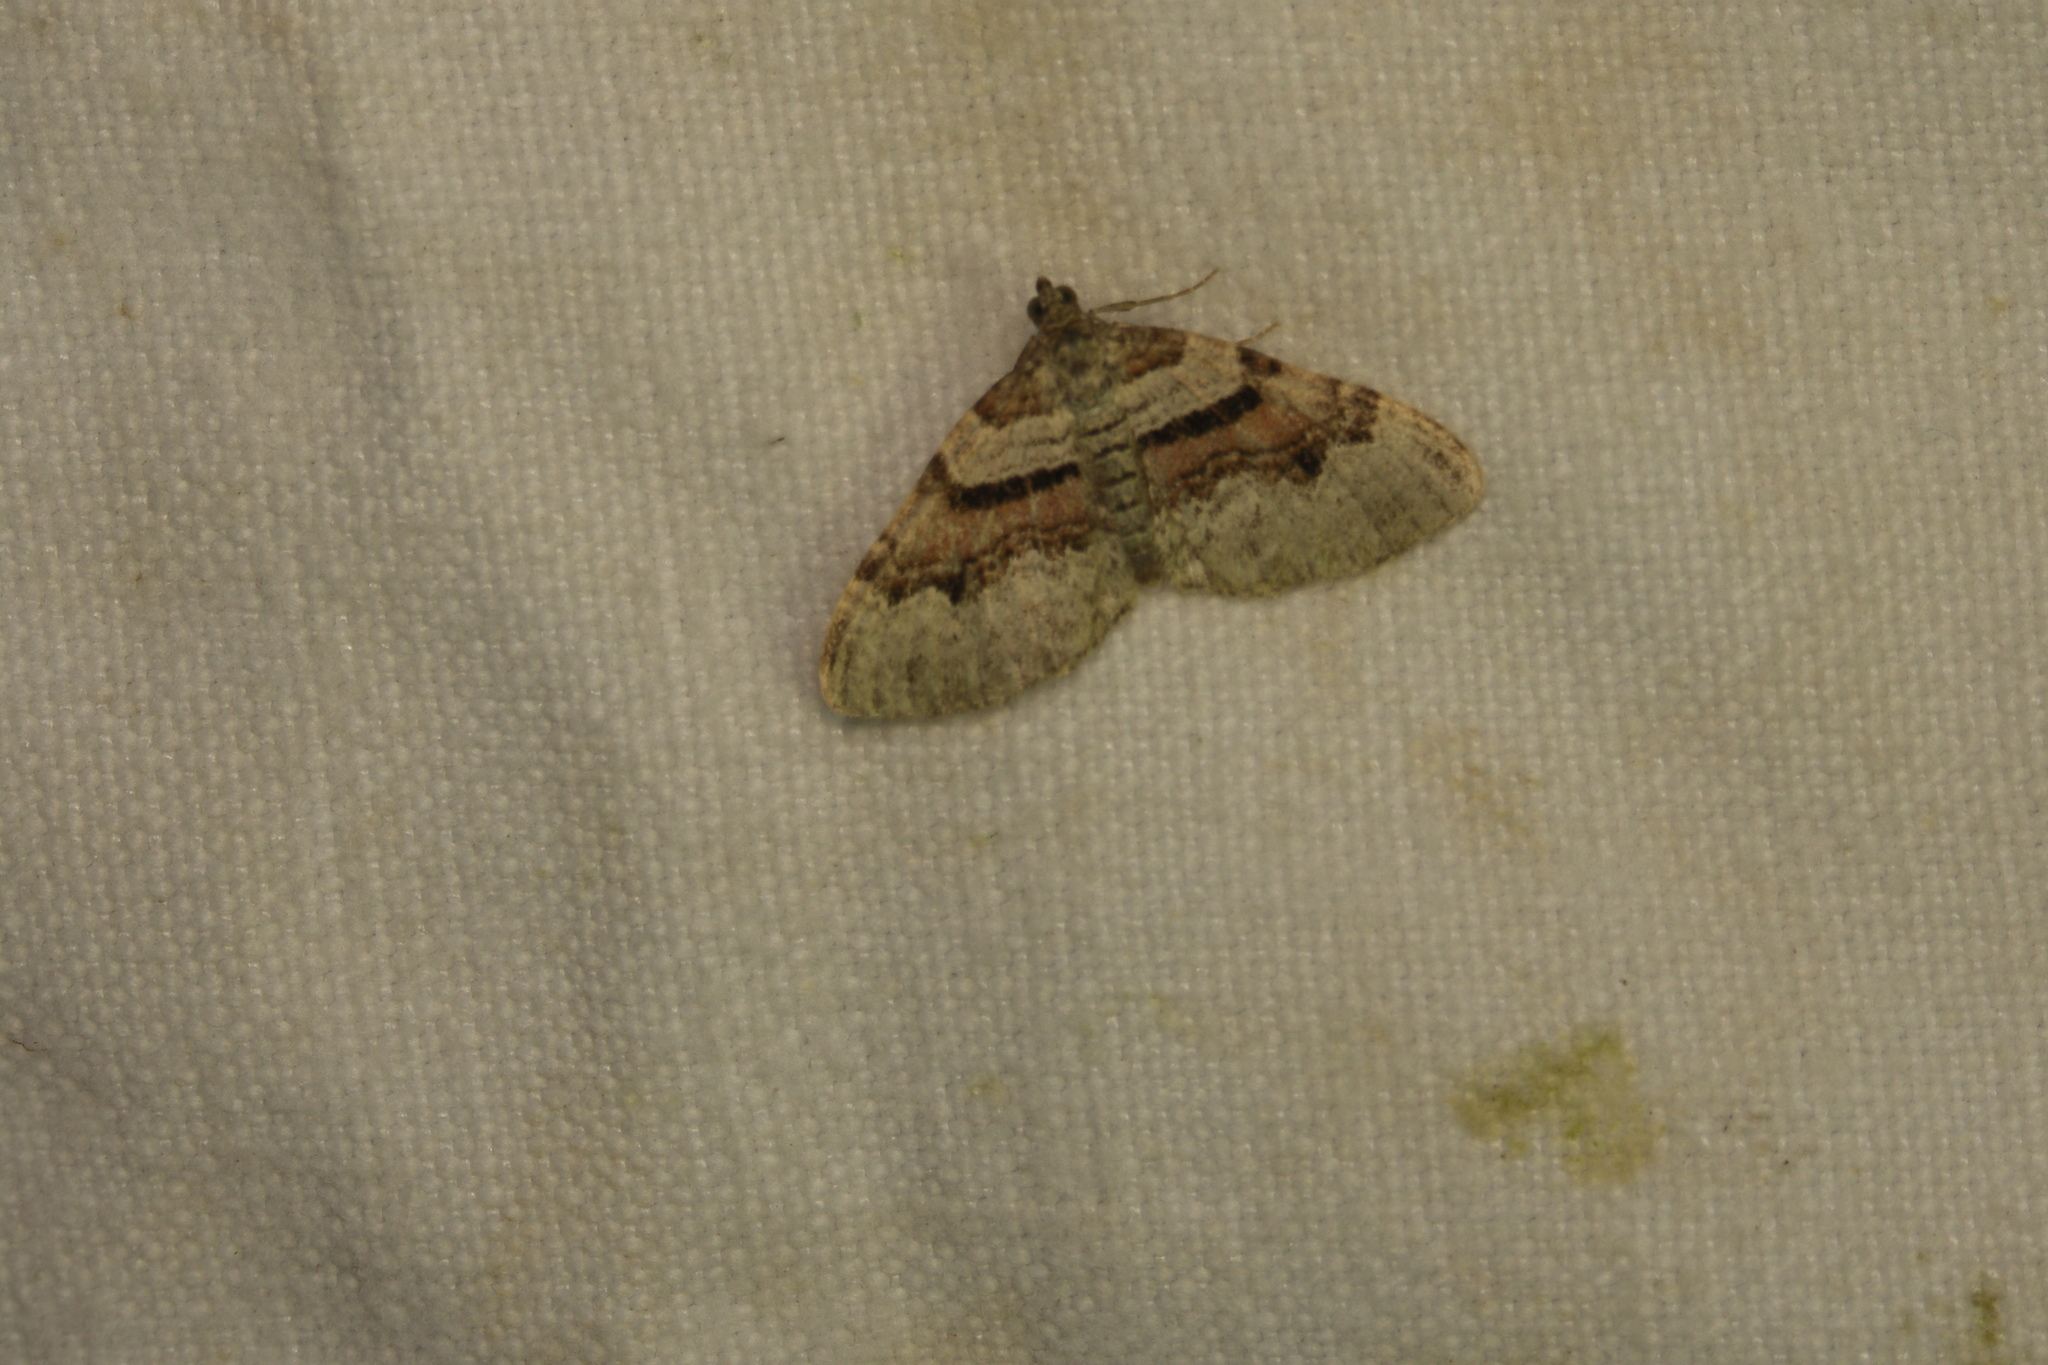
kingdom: Animalia
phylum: Arthropoda
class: Insecta
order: Lepidoptera
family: Geometridae
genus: Xanthorhoe
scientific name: Xanthorhoe designata
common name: Flame carpet
